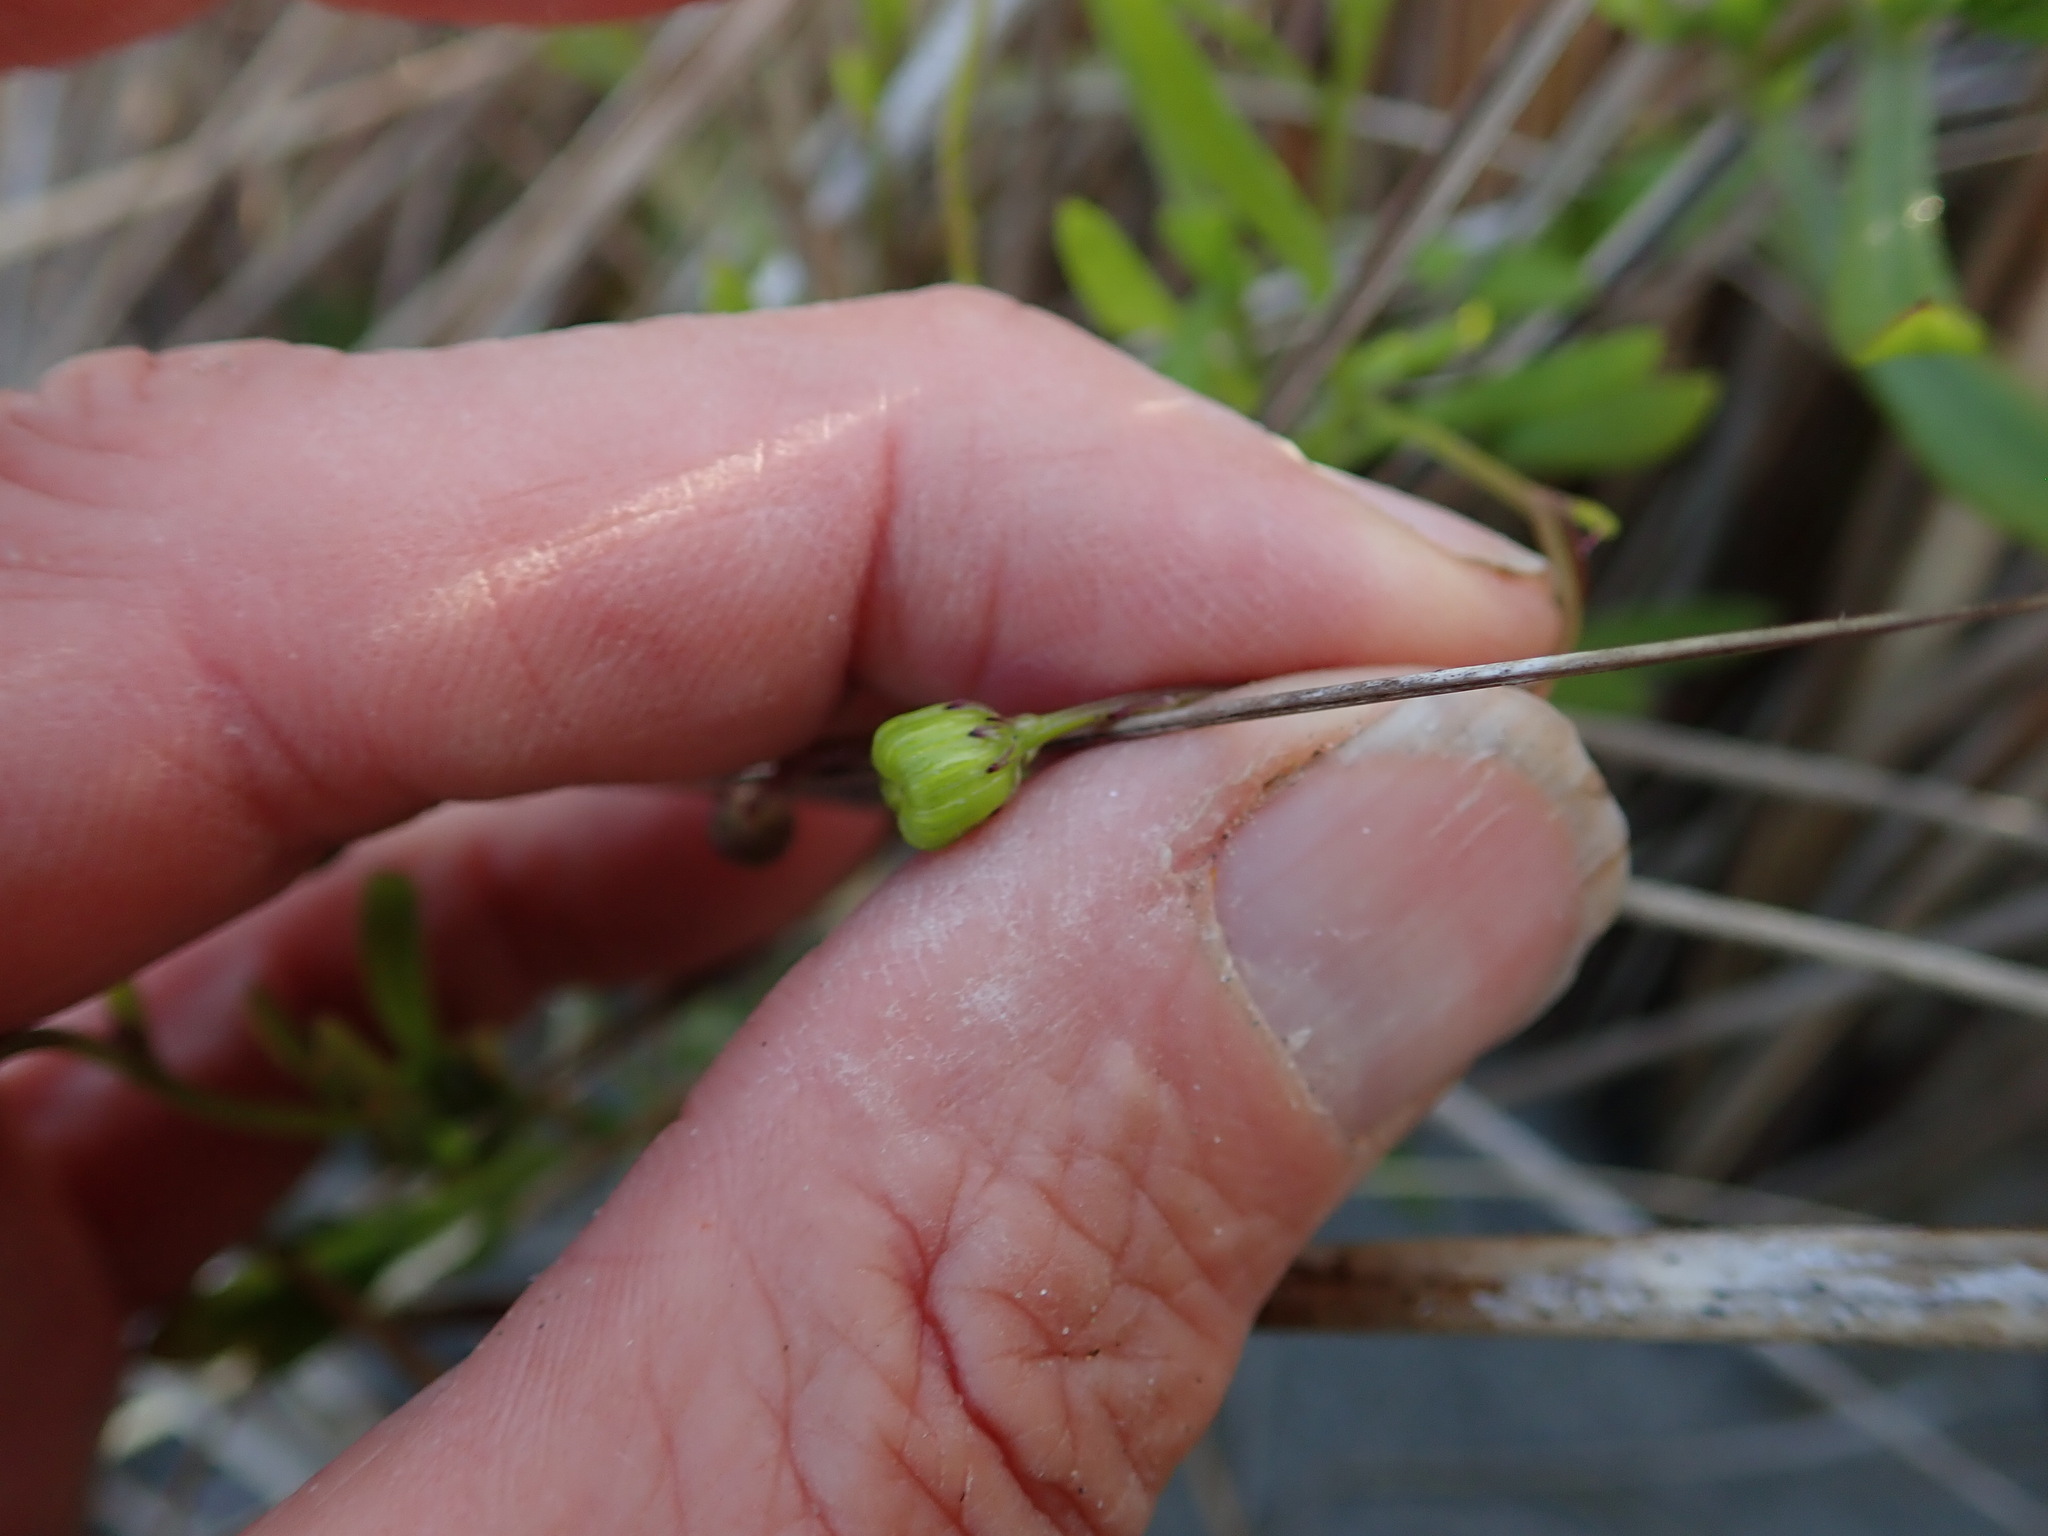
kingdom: Plantae
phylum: Tracheophyta
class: Magnoliopsida
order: Asterales
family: Asteraceae
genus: Senecio
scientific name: Senecio skirrhodon
